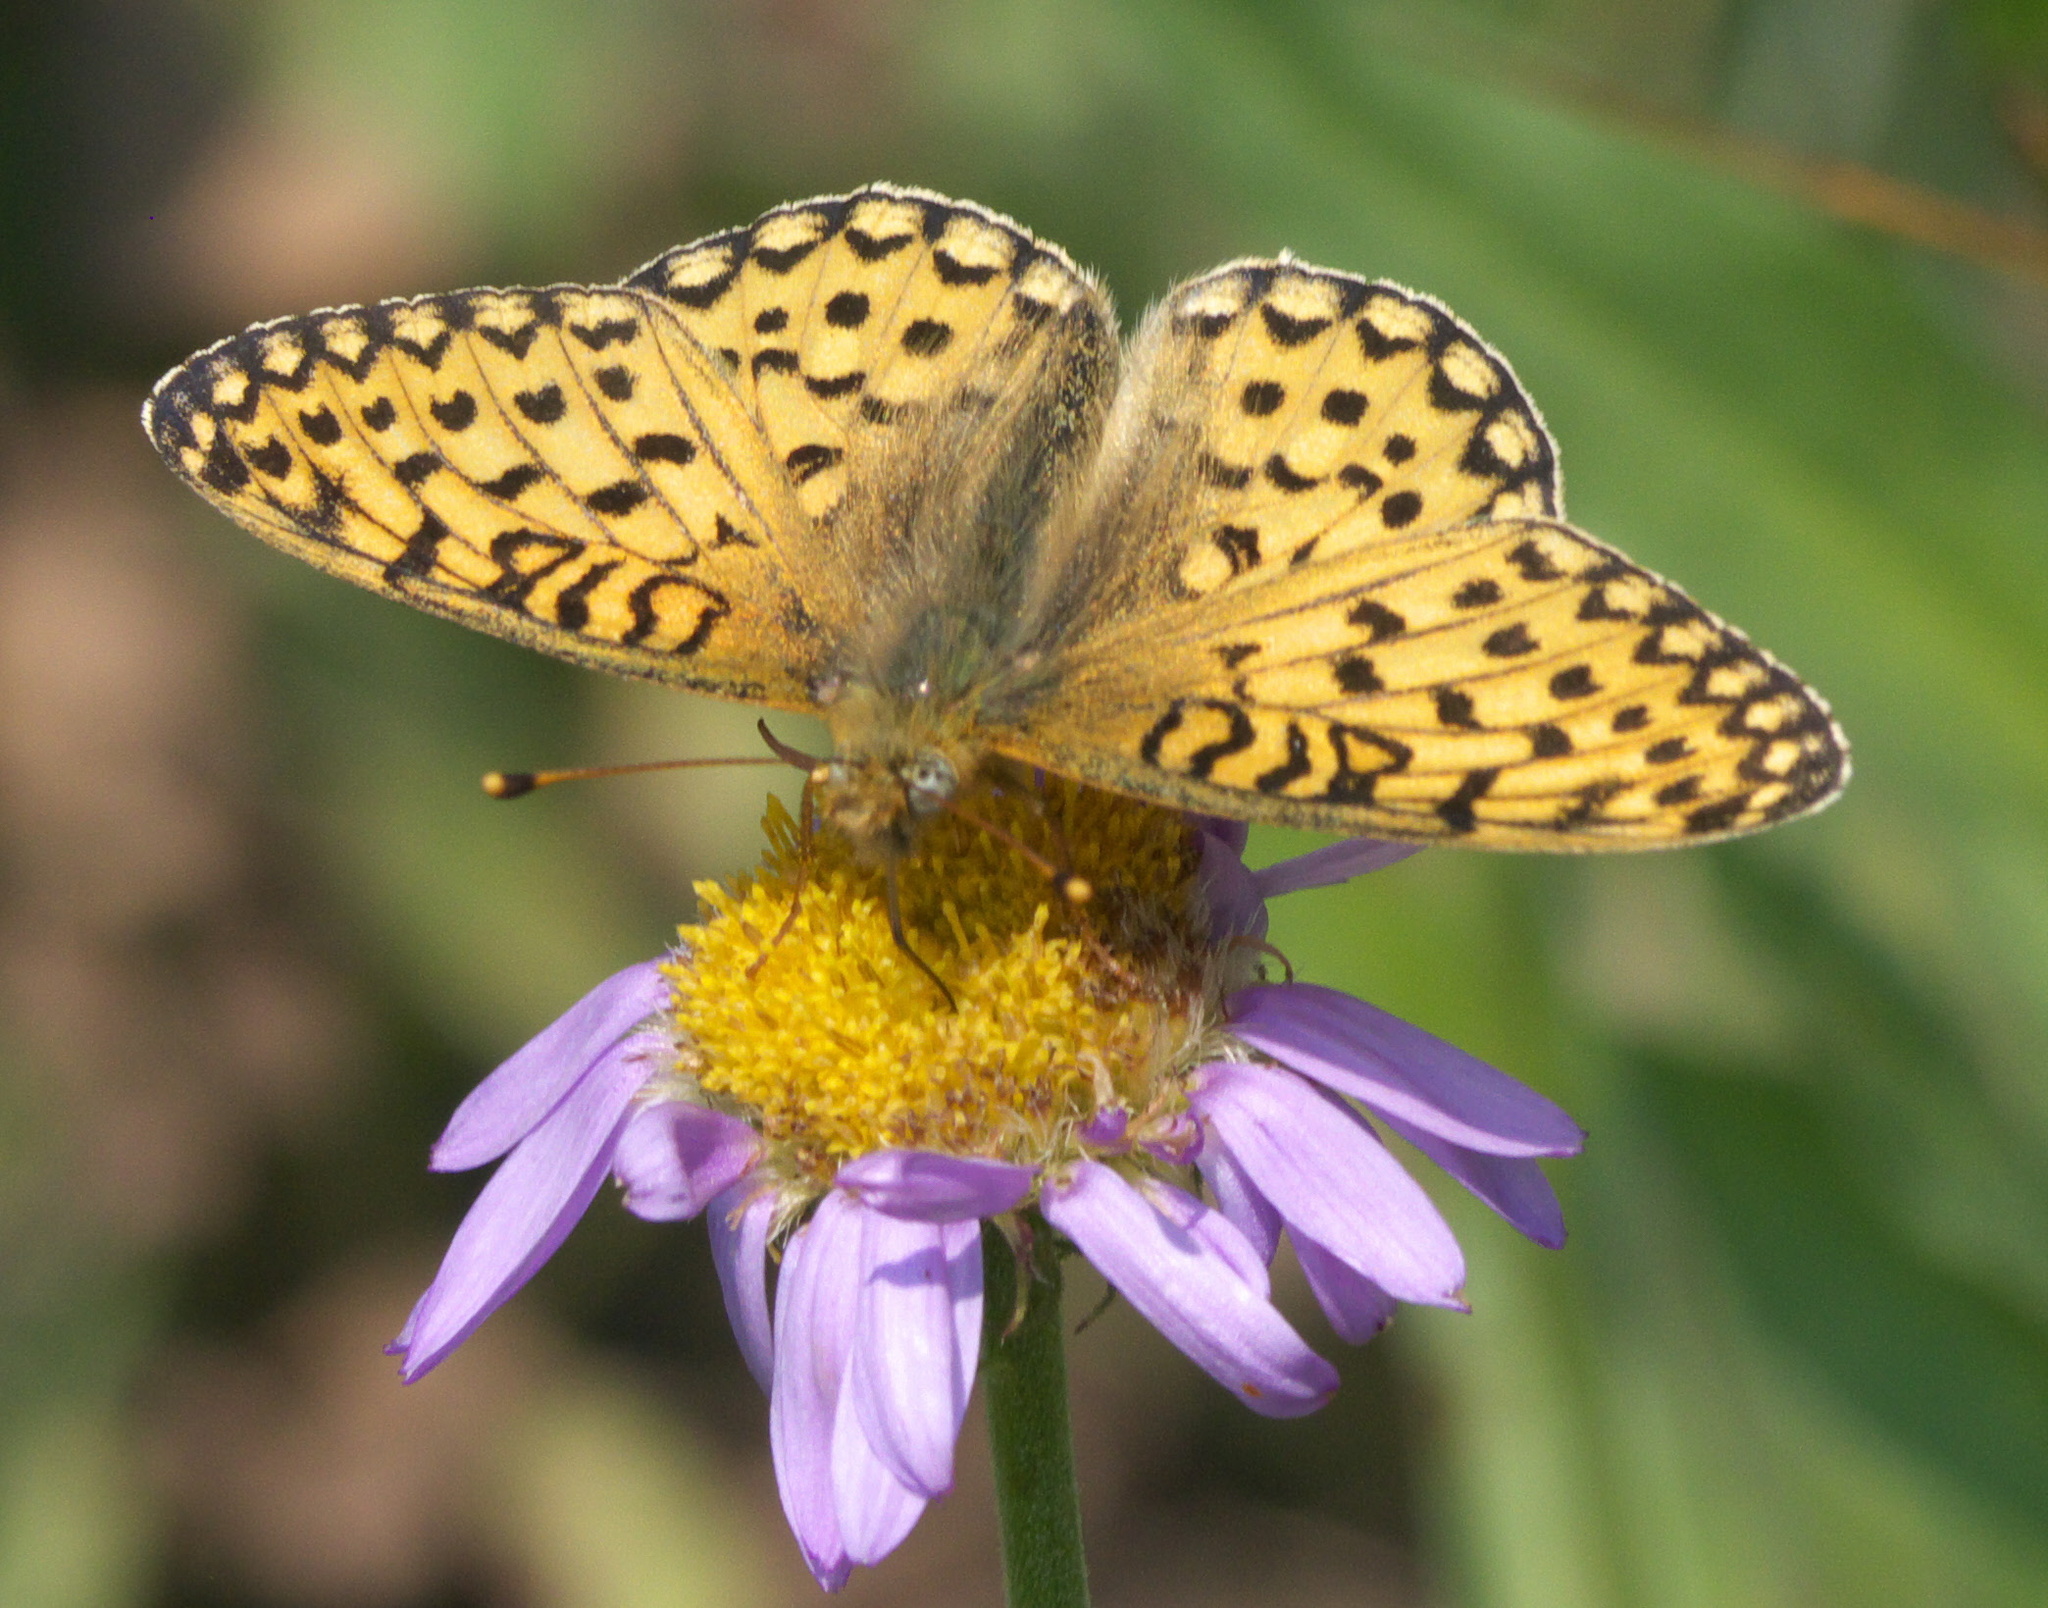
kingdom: Animalia
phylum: Arthropoda
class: Insecta
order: Lepidoptera
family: Nymphalidae
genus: Speyeria
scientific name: Speyeria mormonia
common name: Mormon fritillary
